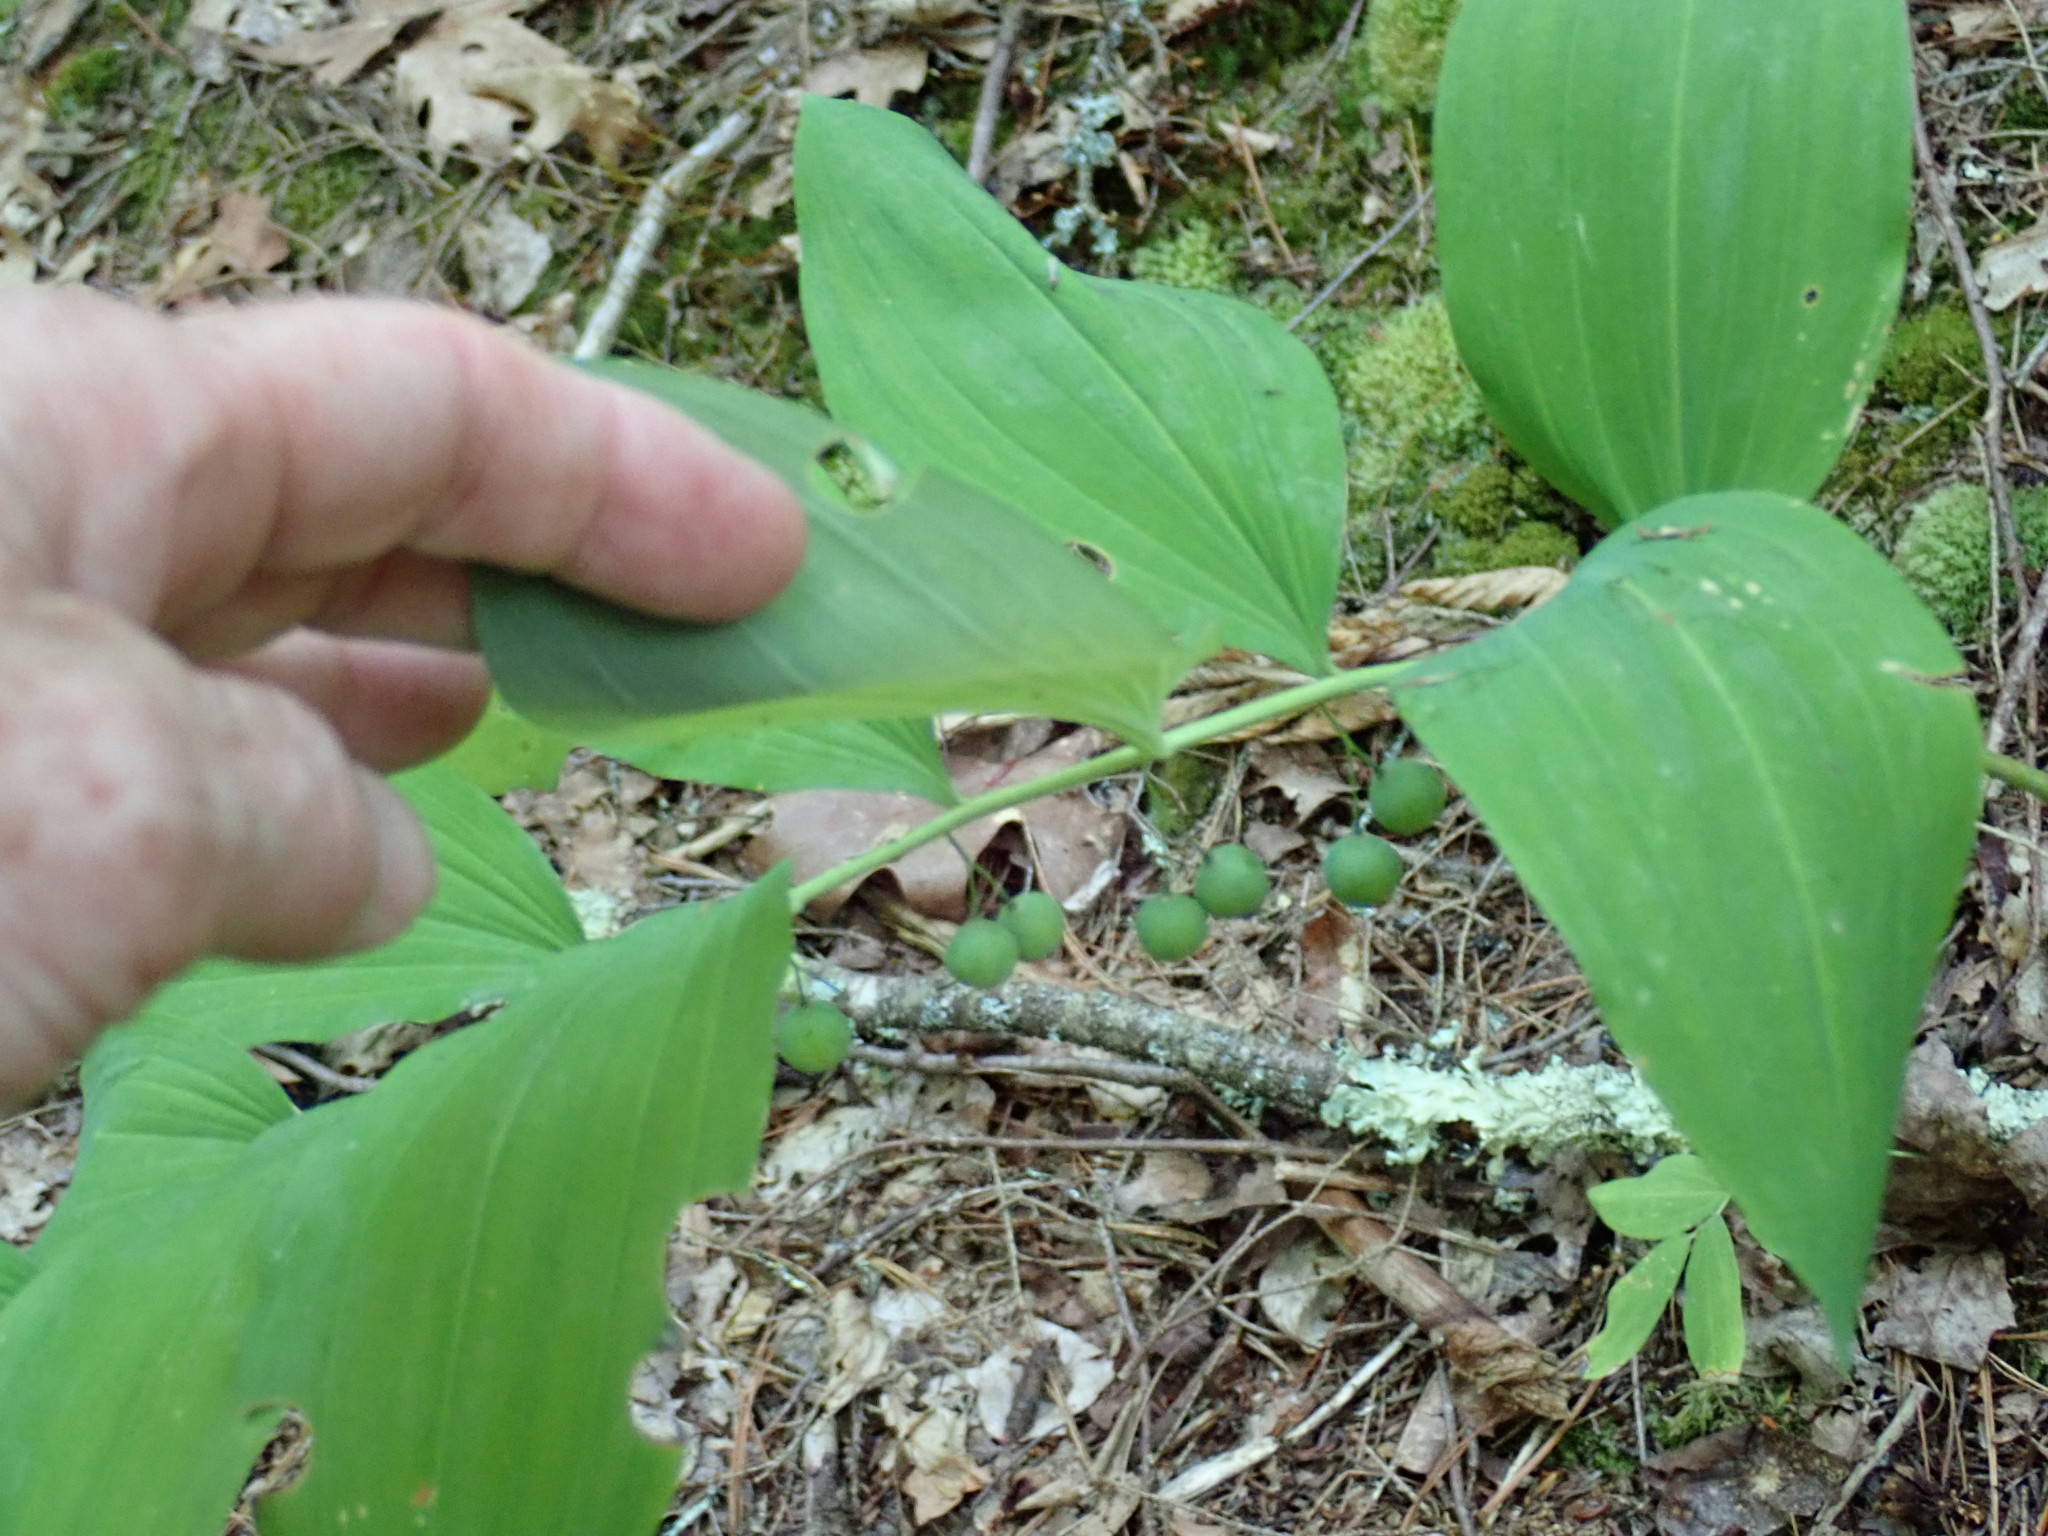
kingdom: Plantae
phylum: Tracheophyta
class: Liliopsida
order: Asparagales
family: Asparagaceae
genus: Polygonatum
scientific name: Polygonatum pubescens
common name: Downy solomon's seal
